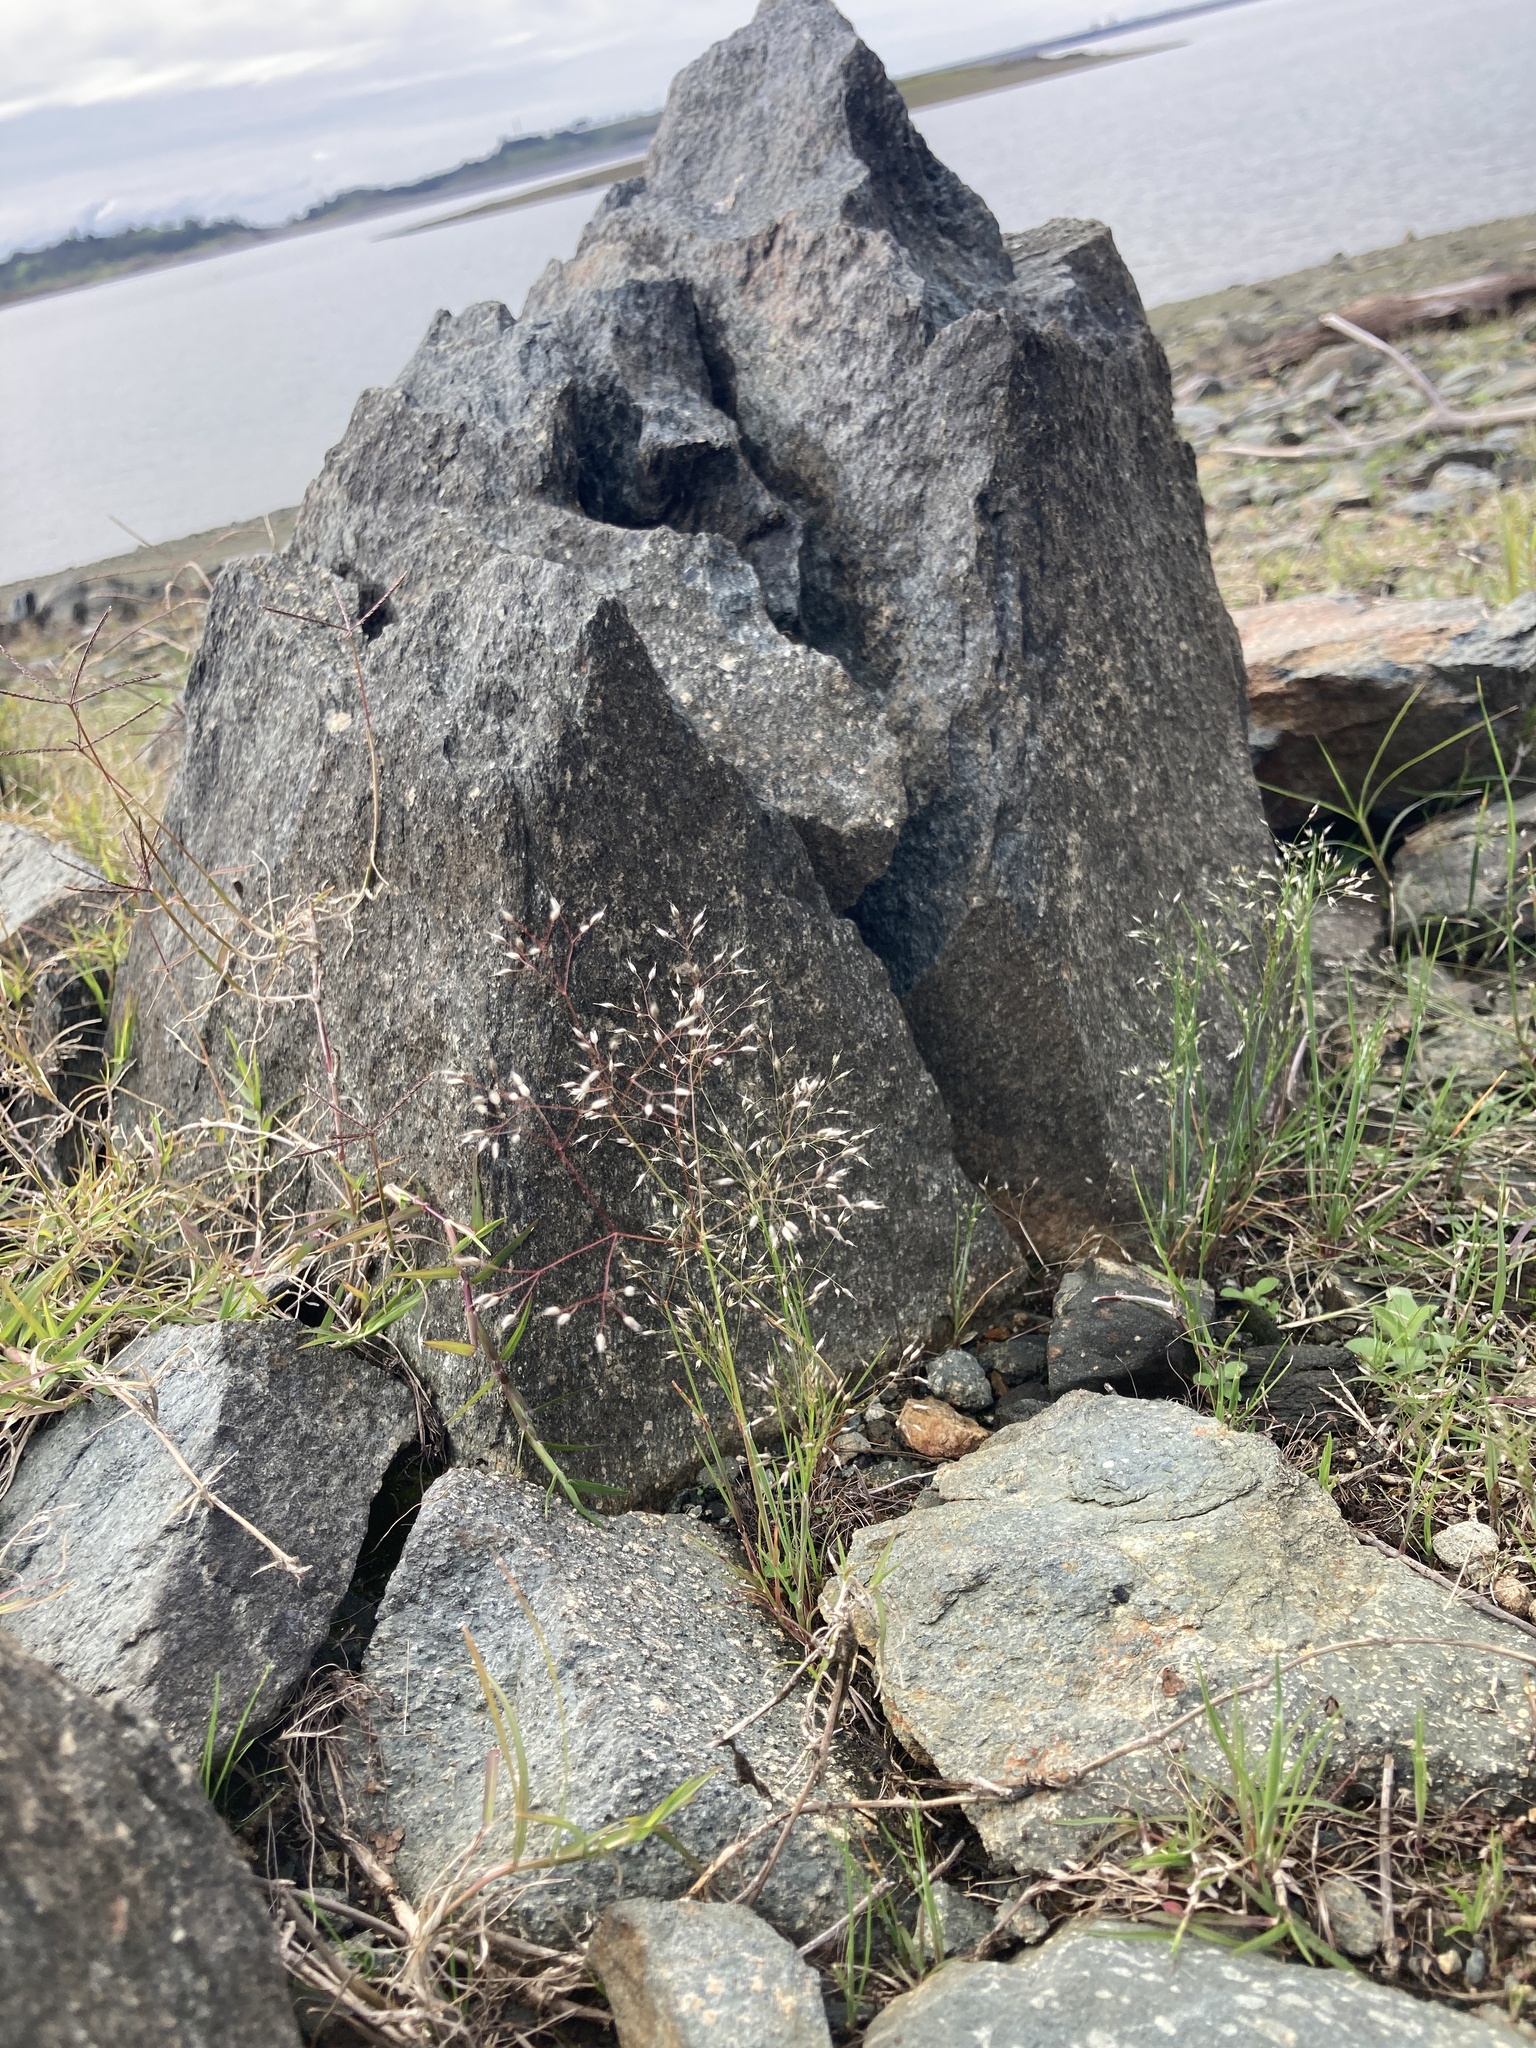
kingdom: Plantae
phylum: Tracheophyta
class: Liliopsida
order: Poales
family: Poaceae
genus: Aira
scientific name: Aira caryophyllea
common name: Silver hairgrass
